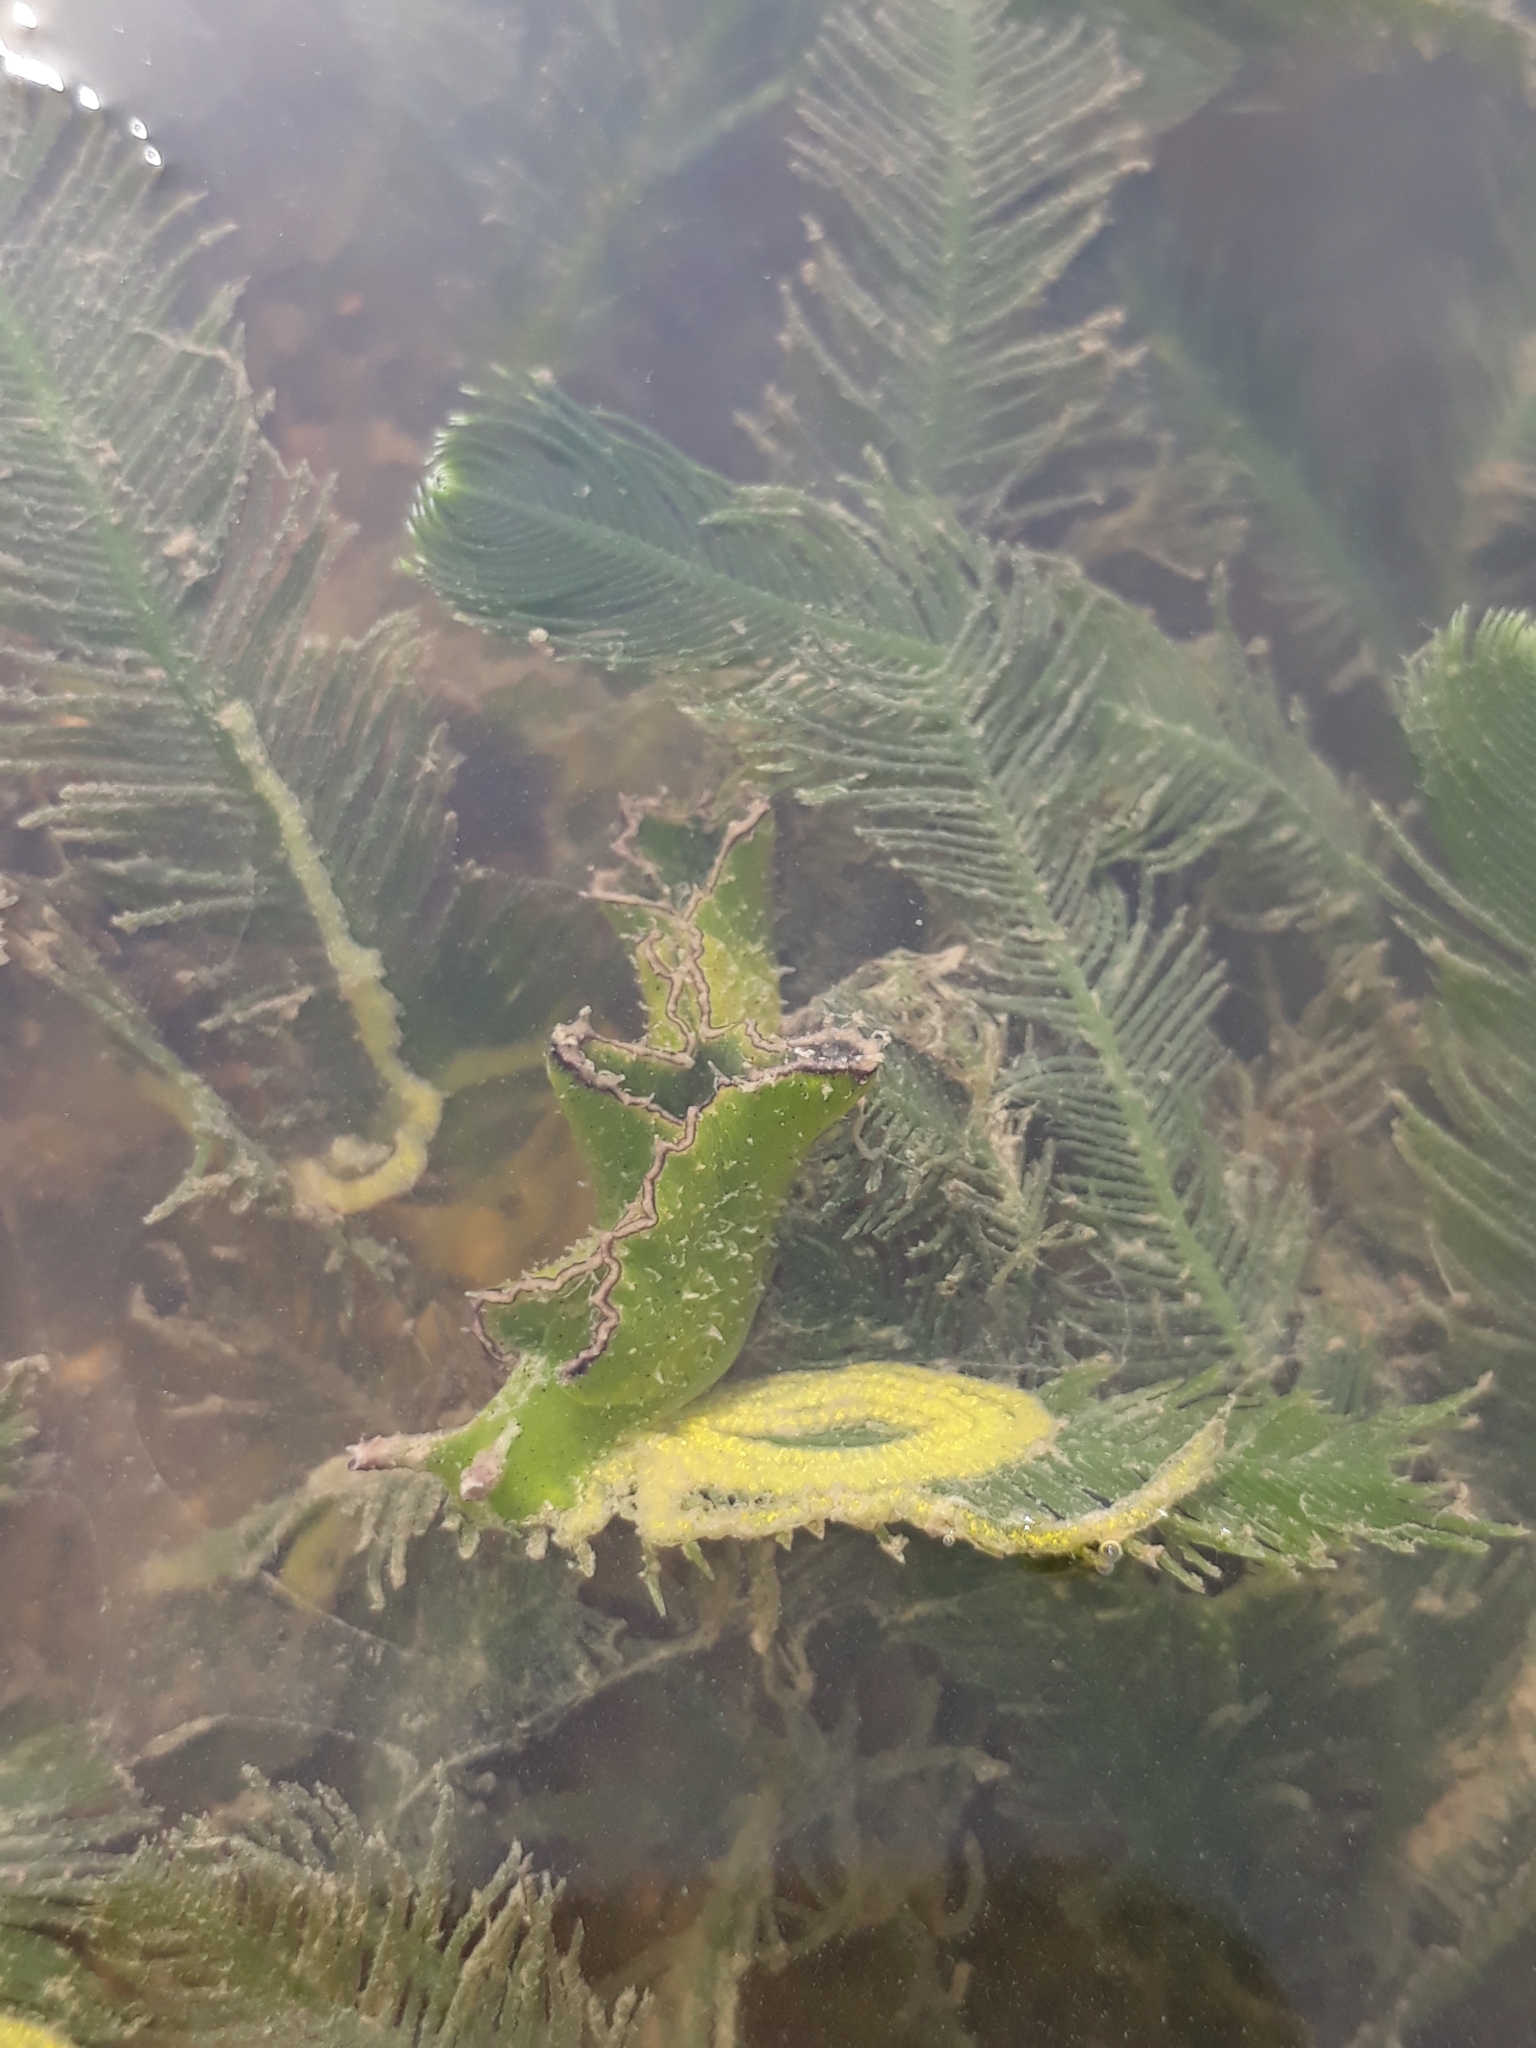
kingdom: Animalia
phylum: Mollusca
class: Gastropoda
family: Plakobranchidae
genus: Elysia
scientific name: Elysia tomentosa
